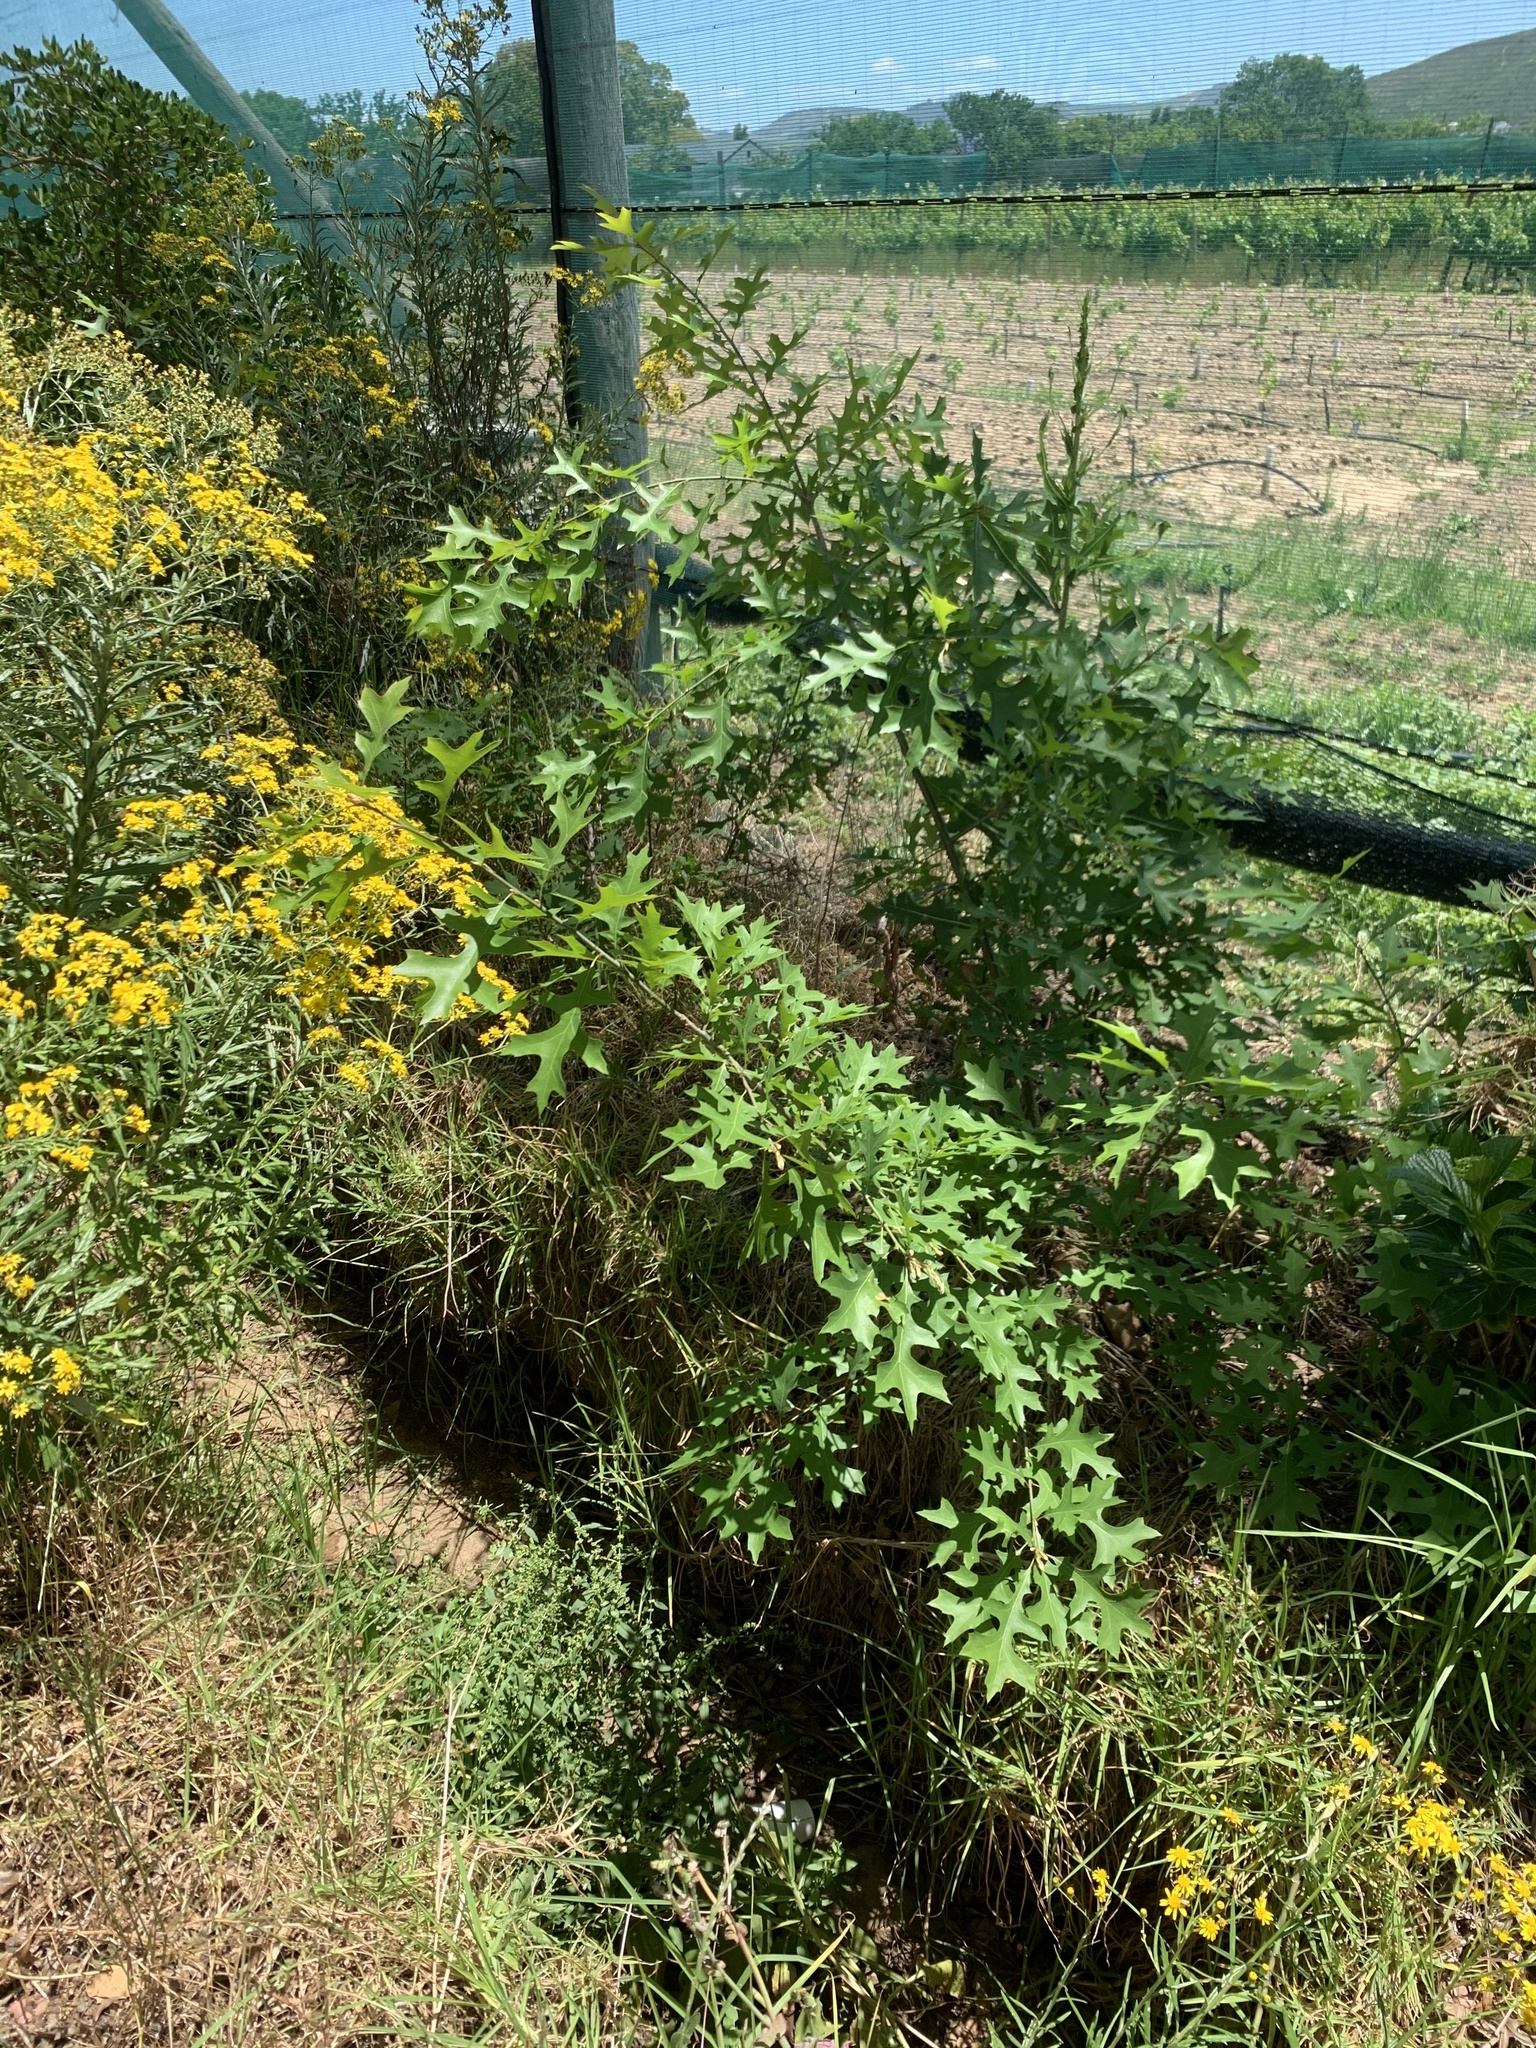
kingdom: Plantae
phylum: Tracheophyta
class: Magnoliopsida
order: Fagales
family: Fagaceae
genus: Quercus
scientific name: Quercus palustris
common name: Pin oak
